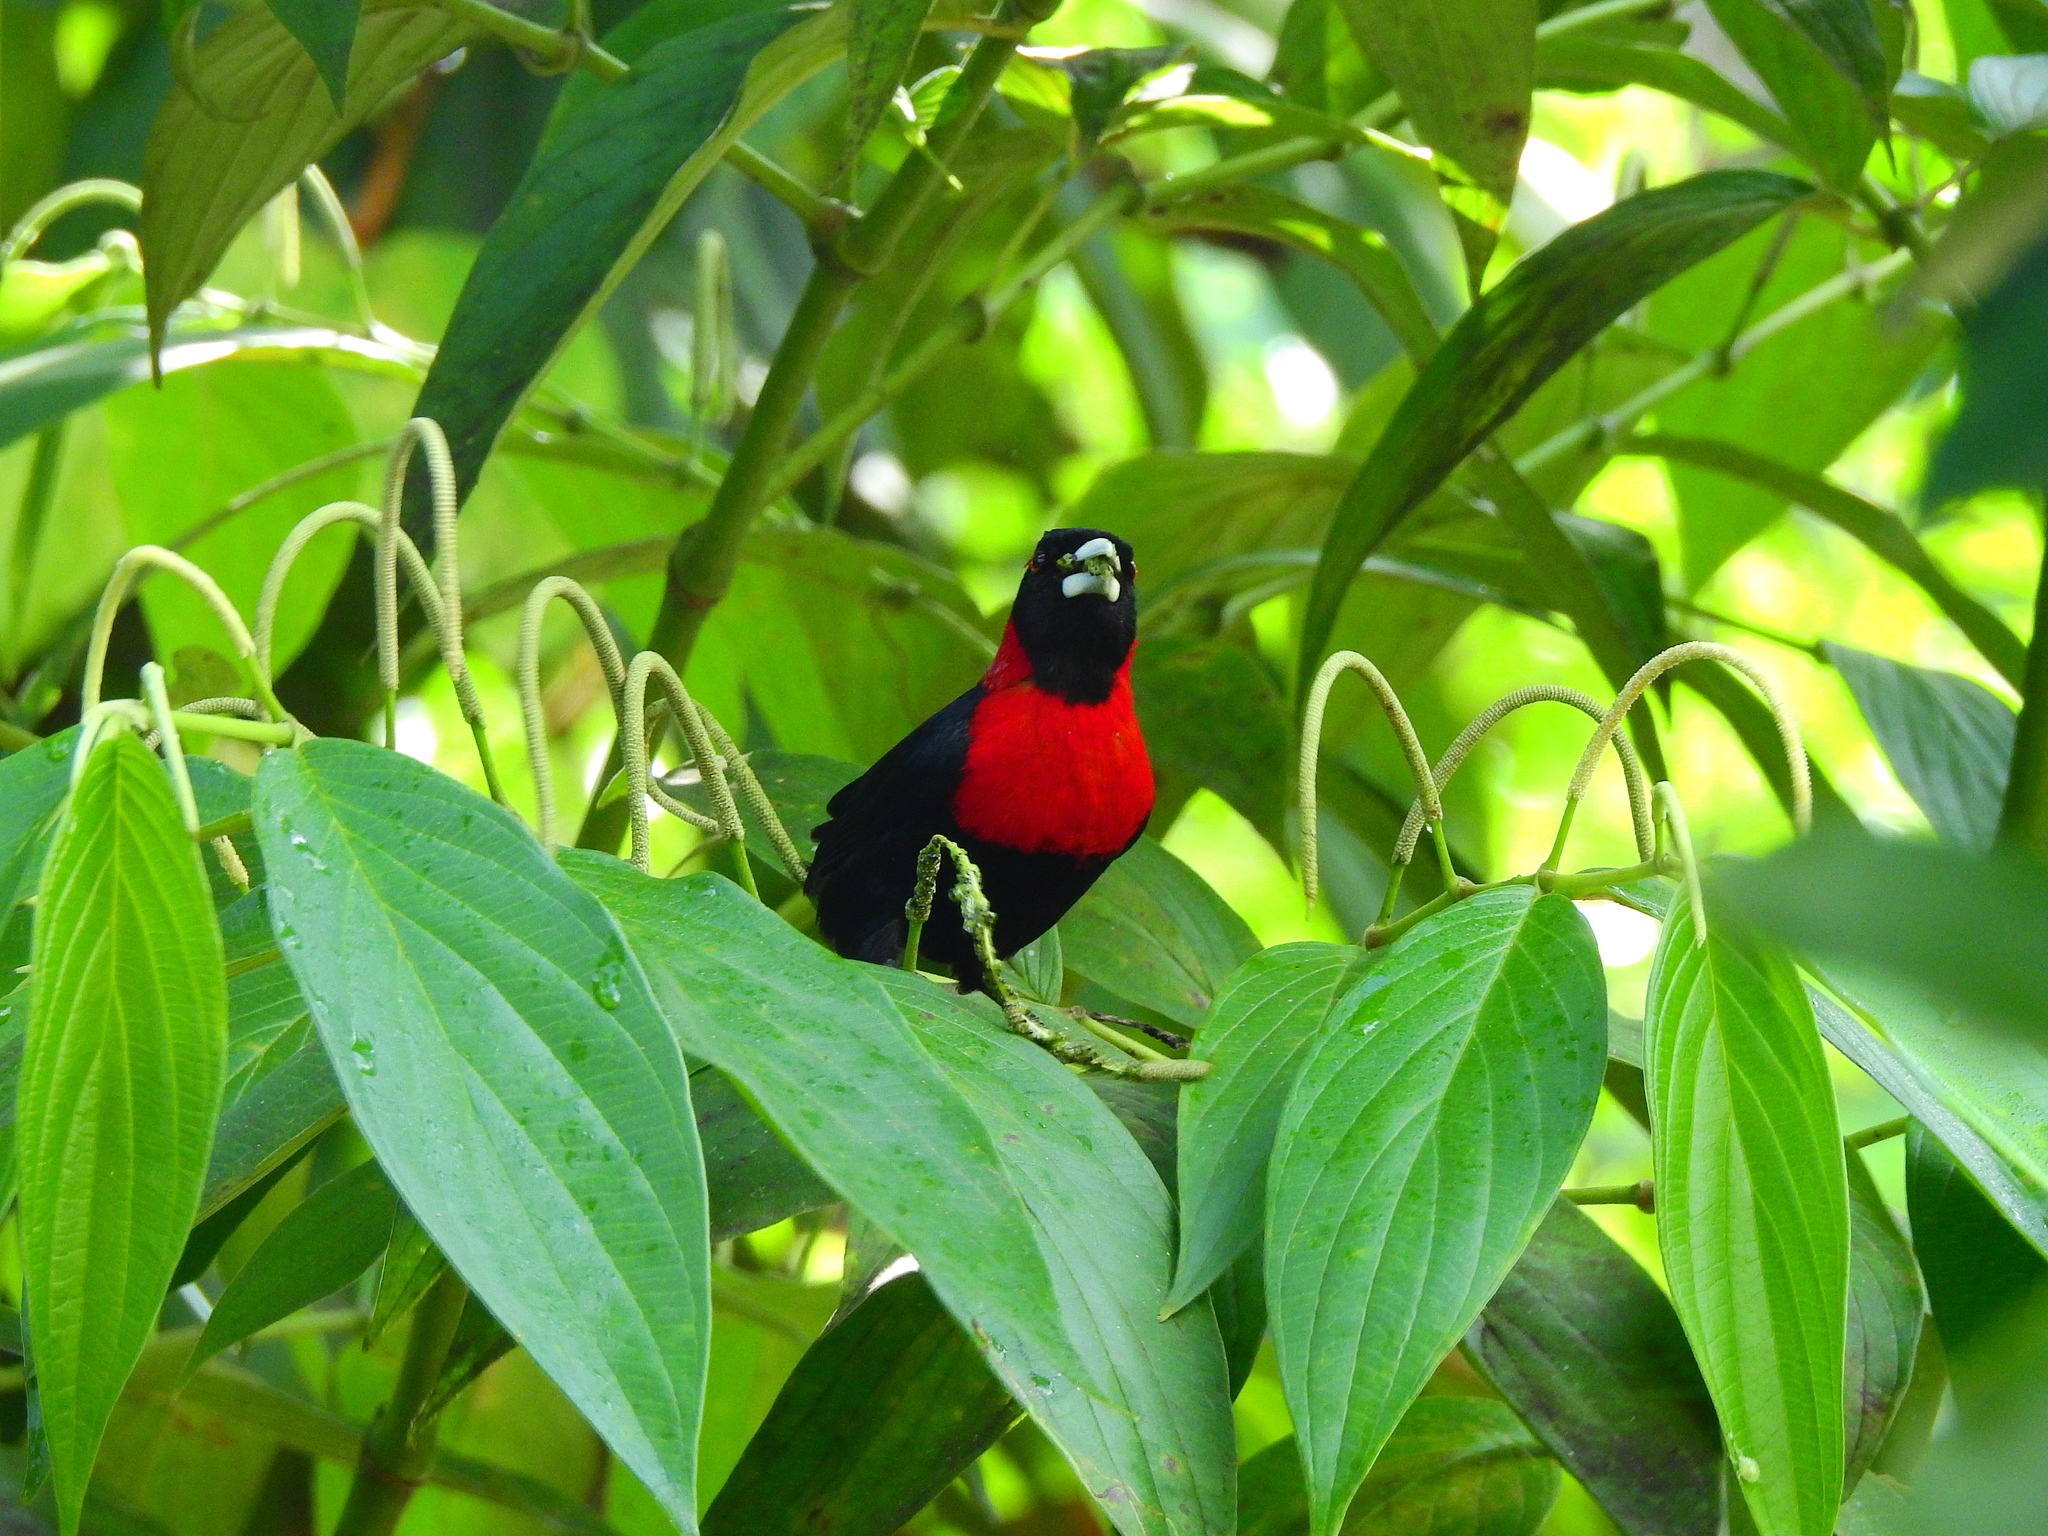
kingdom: Animalia
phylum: Chordata
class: Aves
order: Passeriformes
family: Thraupidae
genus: Ramphocelus
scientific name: Ramphocelus sanguinolentus
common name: Crimson-collared tanager
